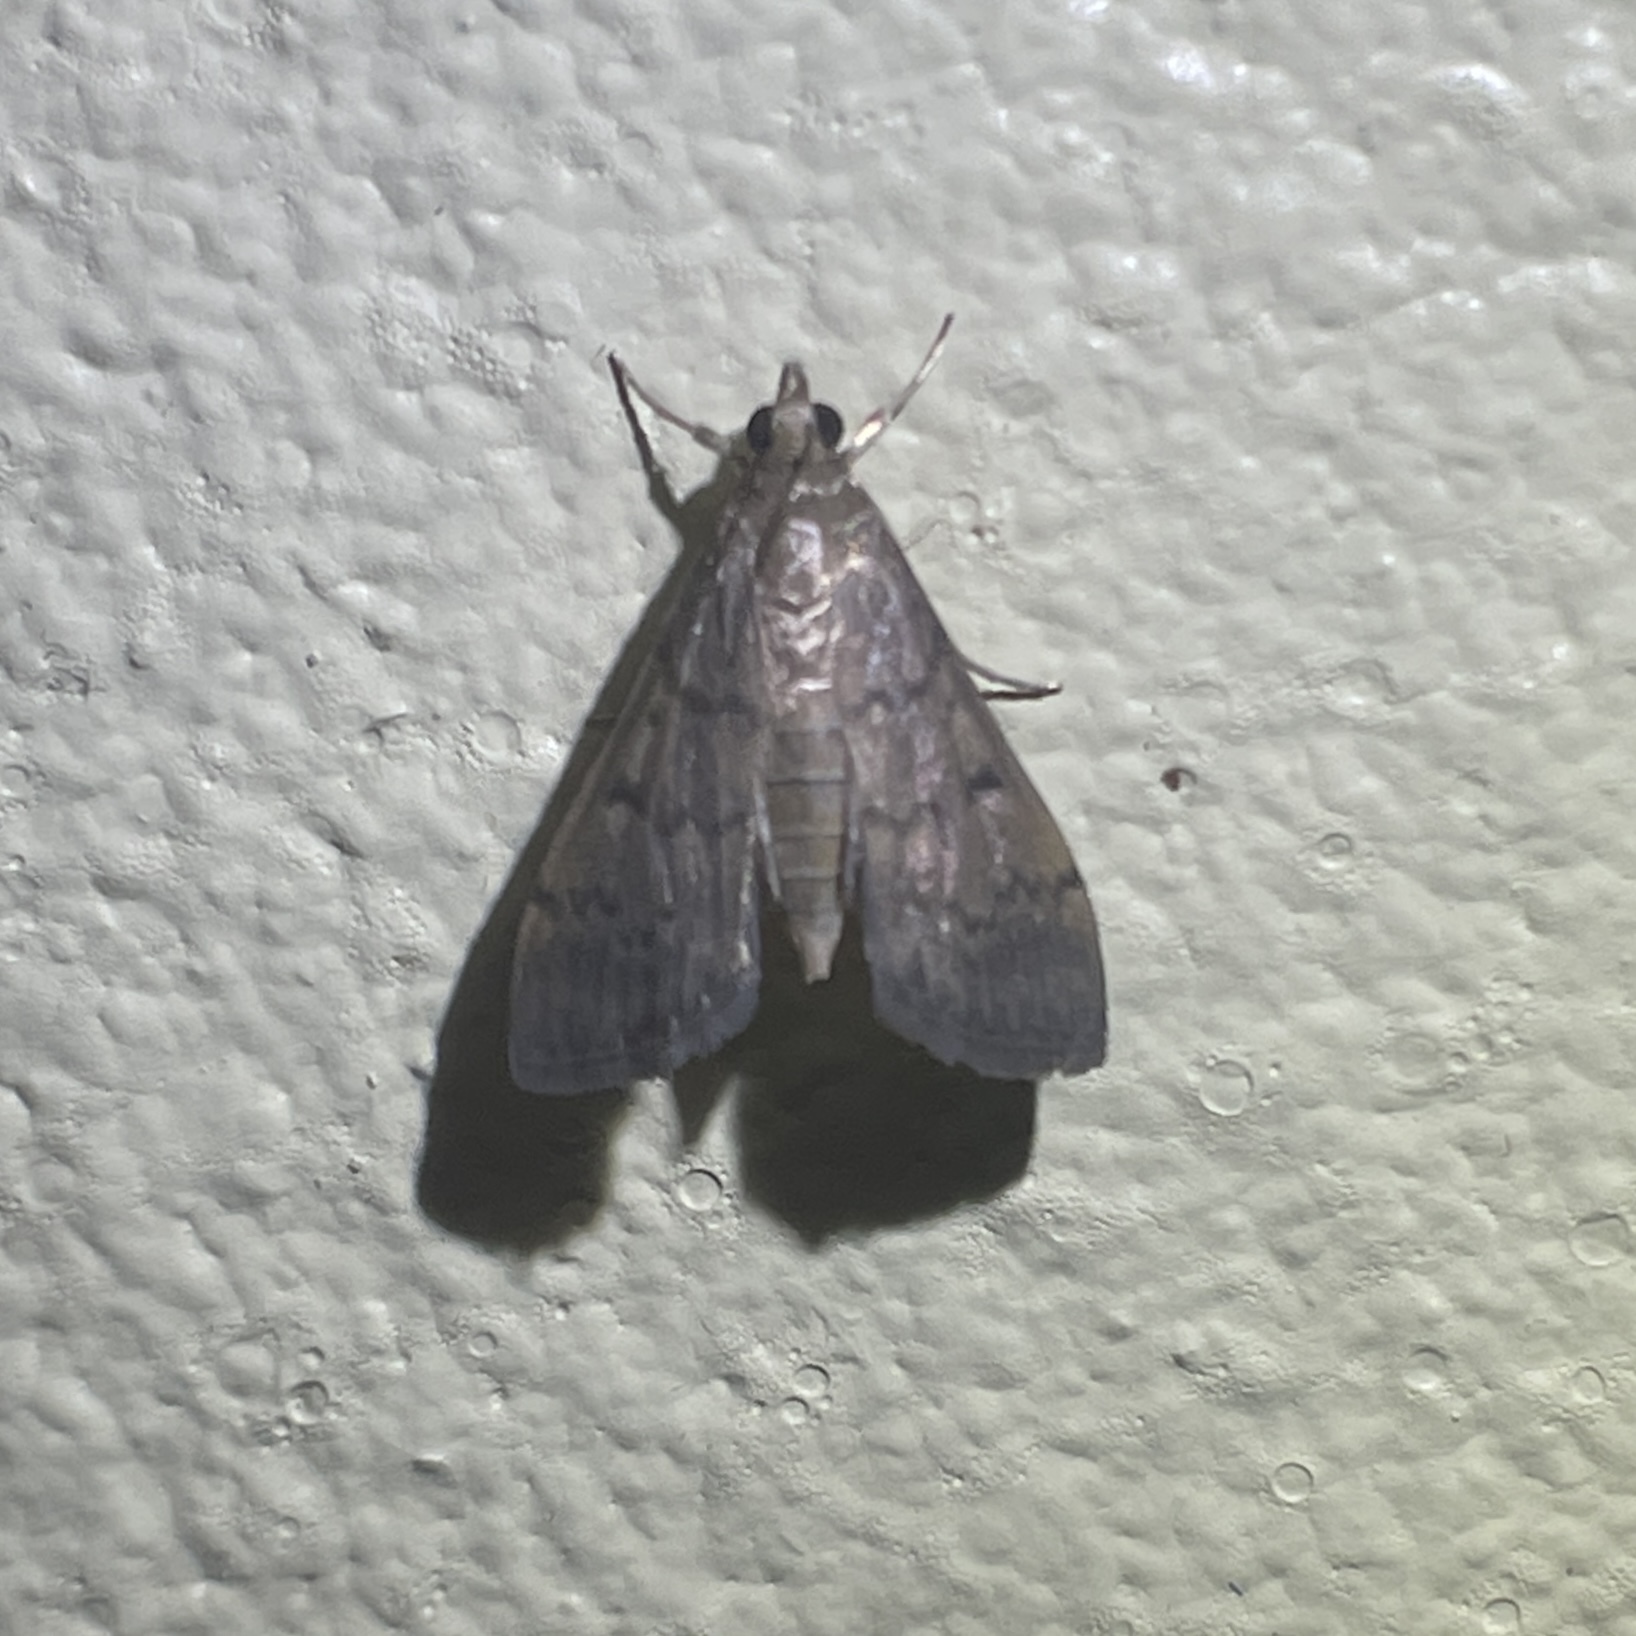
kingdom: Animalia
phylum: Arthropoda
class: Insecta
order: Lepidoptera
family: Crambidae
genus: Herpetogramma
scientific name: Herpetogramma phaeopteralis
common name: Dusky herpetogramma moth
